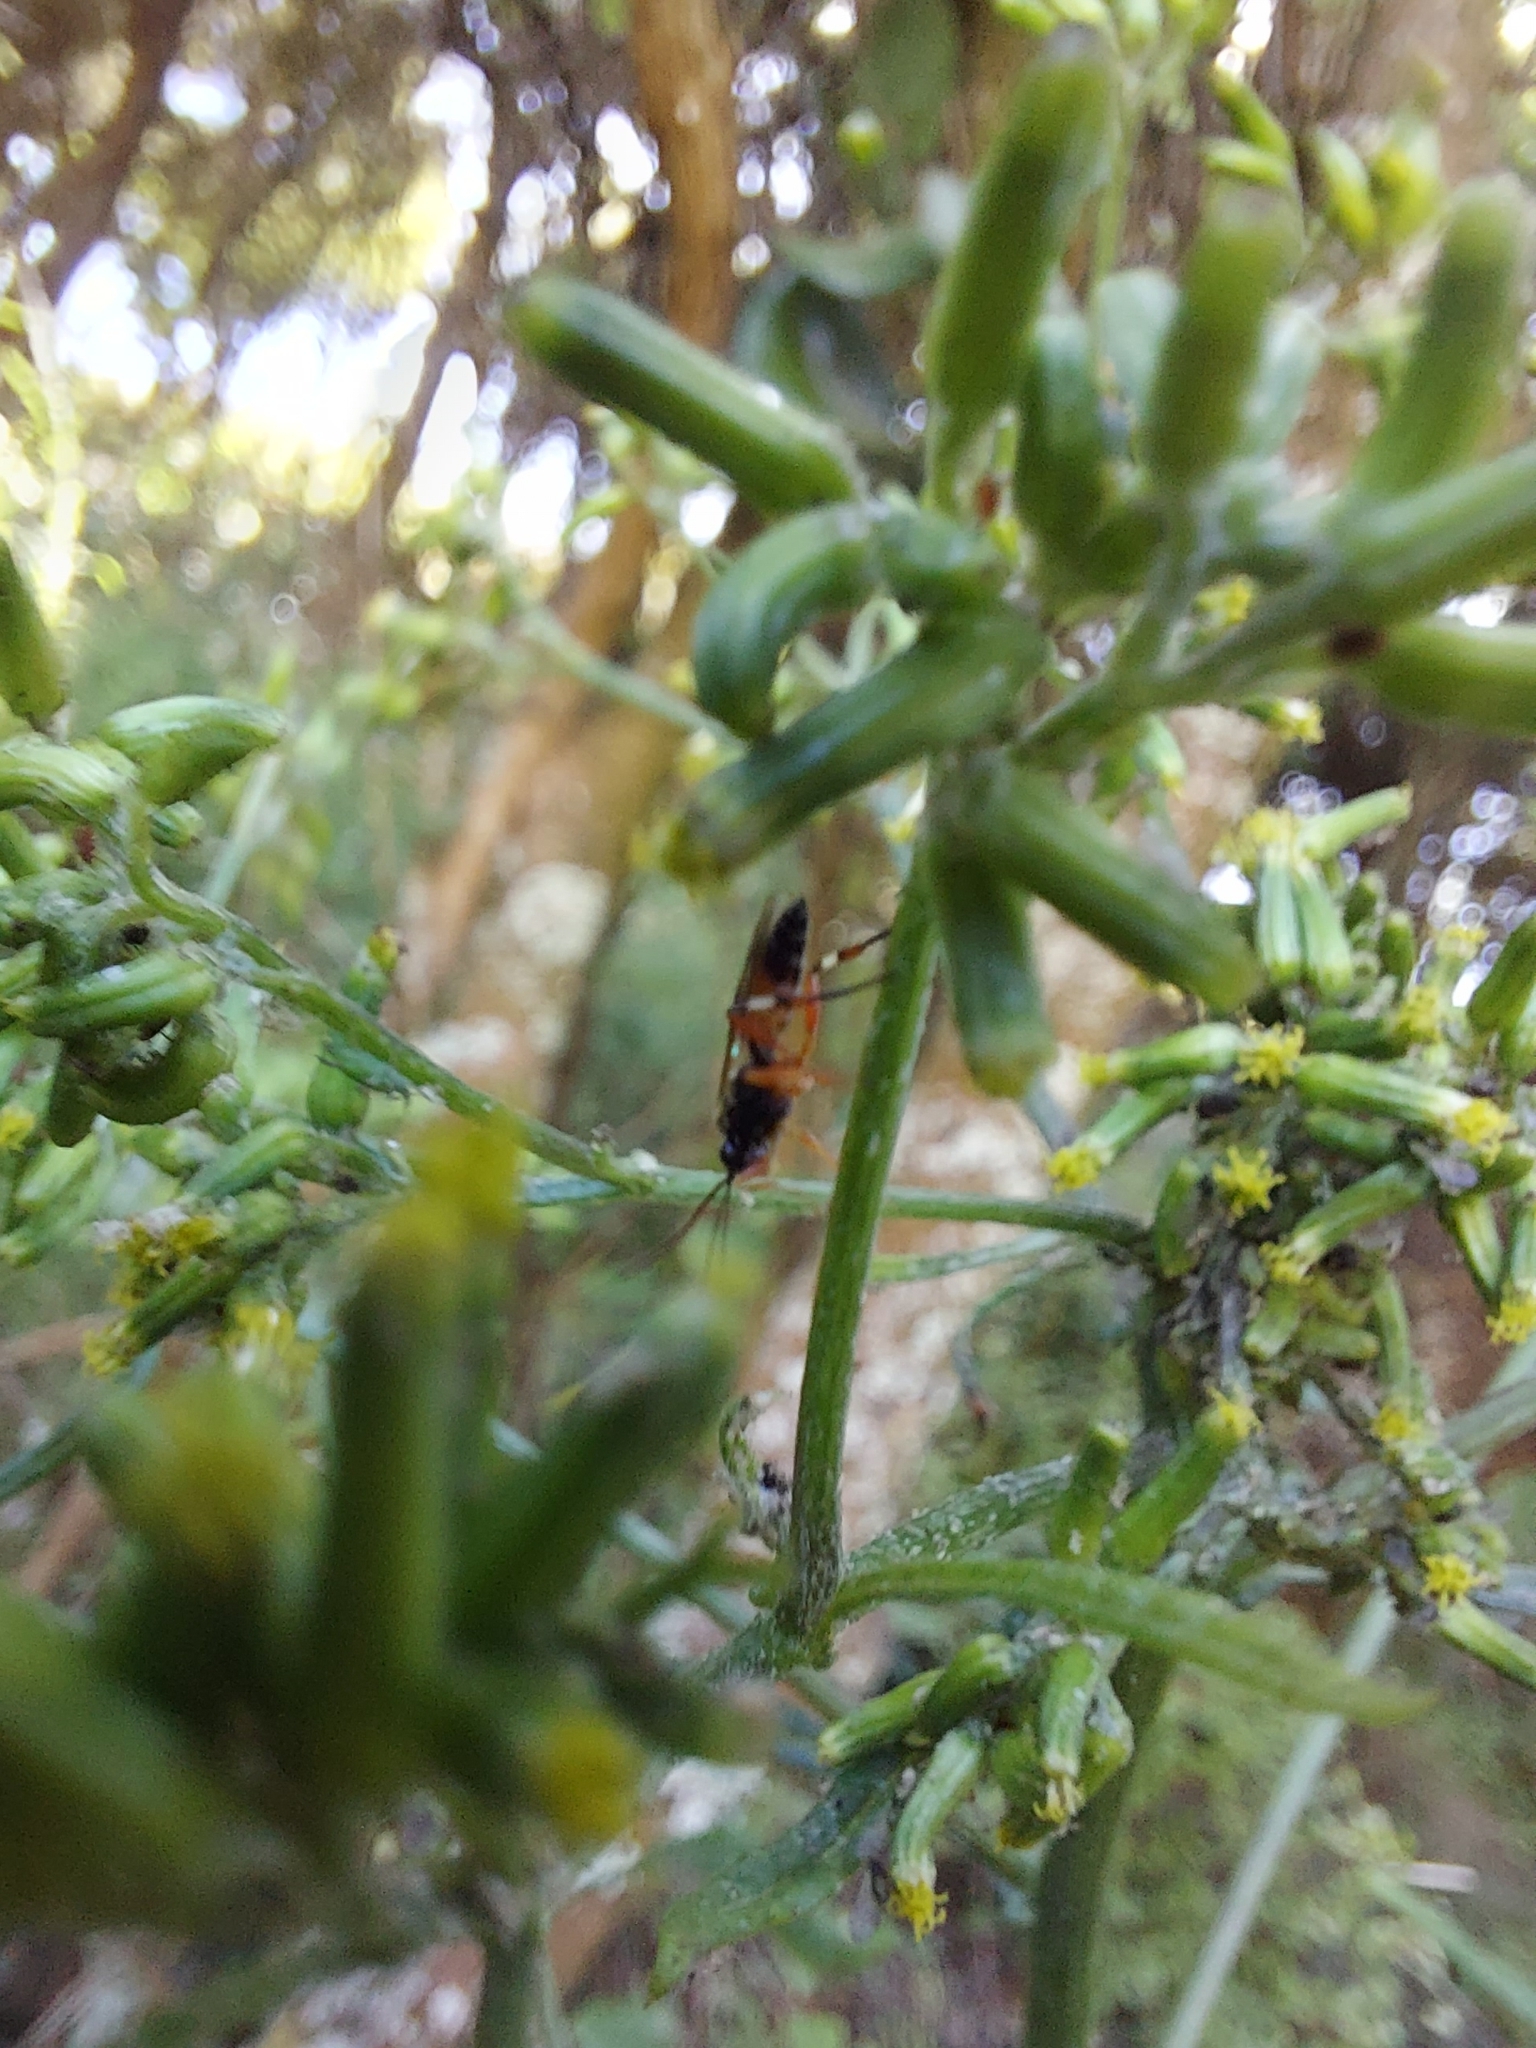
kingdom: Animalia
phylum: Arthropoda
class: Insecta
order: Hymenoptera
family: Ichneumonidae
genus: Diplazon
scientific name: Diplazon laetatorius
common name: Parasitoid wasp
